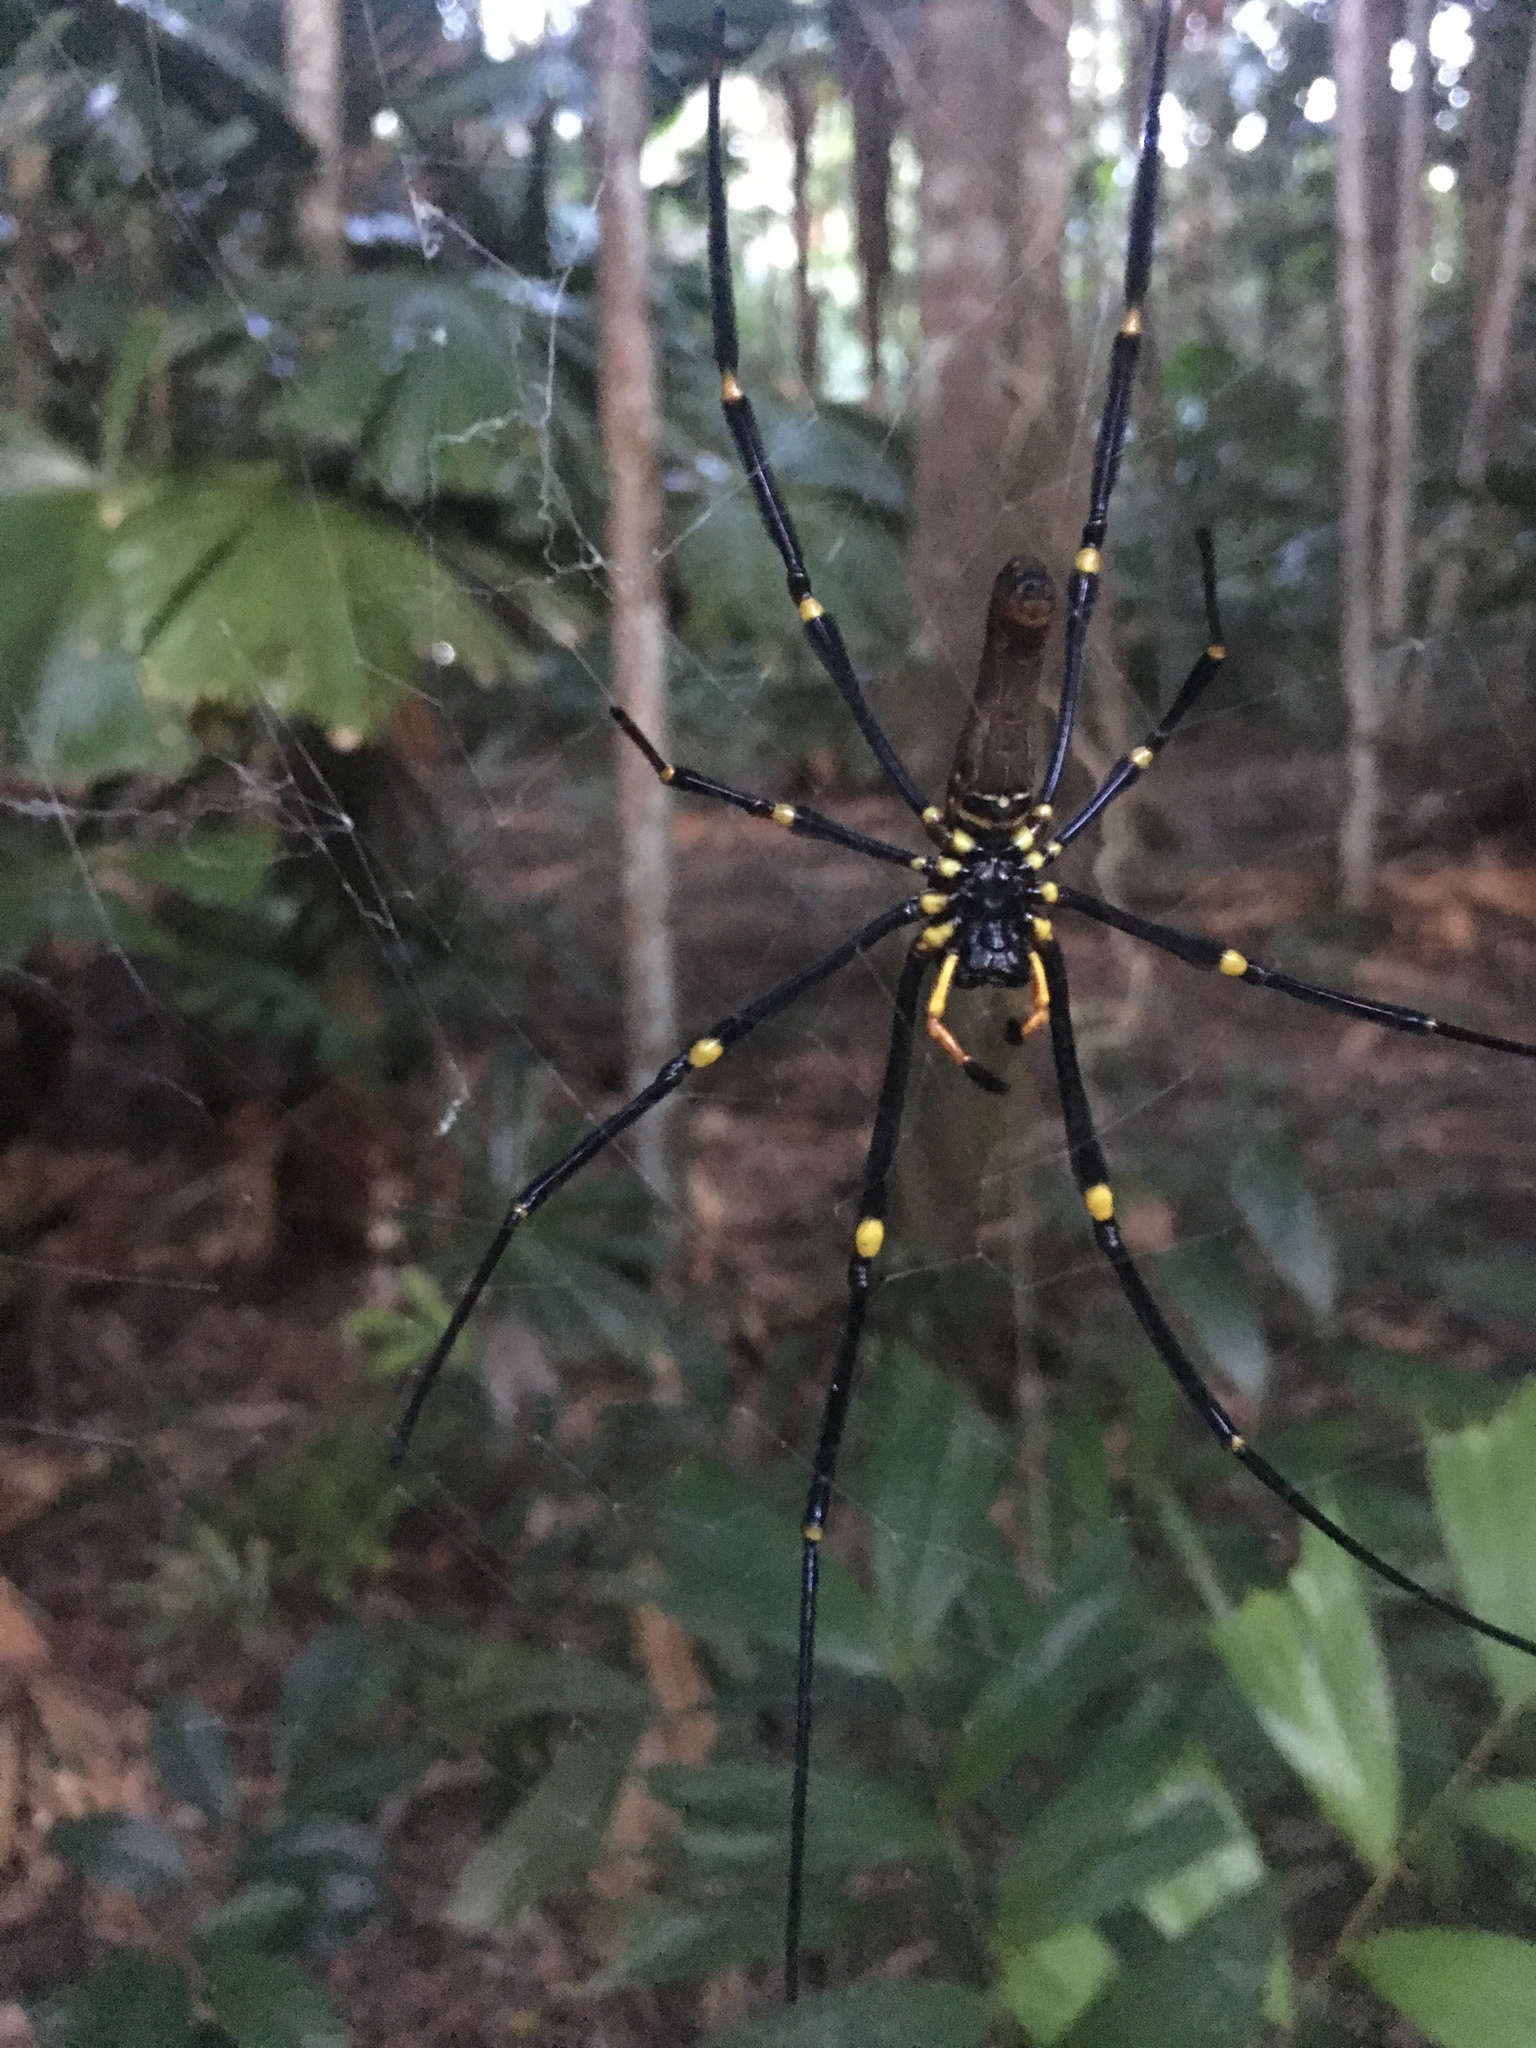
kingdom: Animalia
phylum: Arthropoda
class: Arachnida
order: Araneae
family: Araneidae
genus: Nephila
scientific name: Nephila pilipes
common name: Giant golden orb weaver
